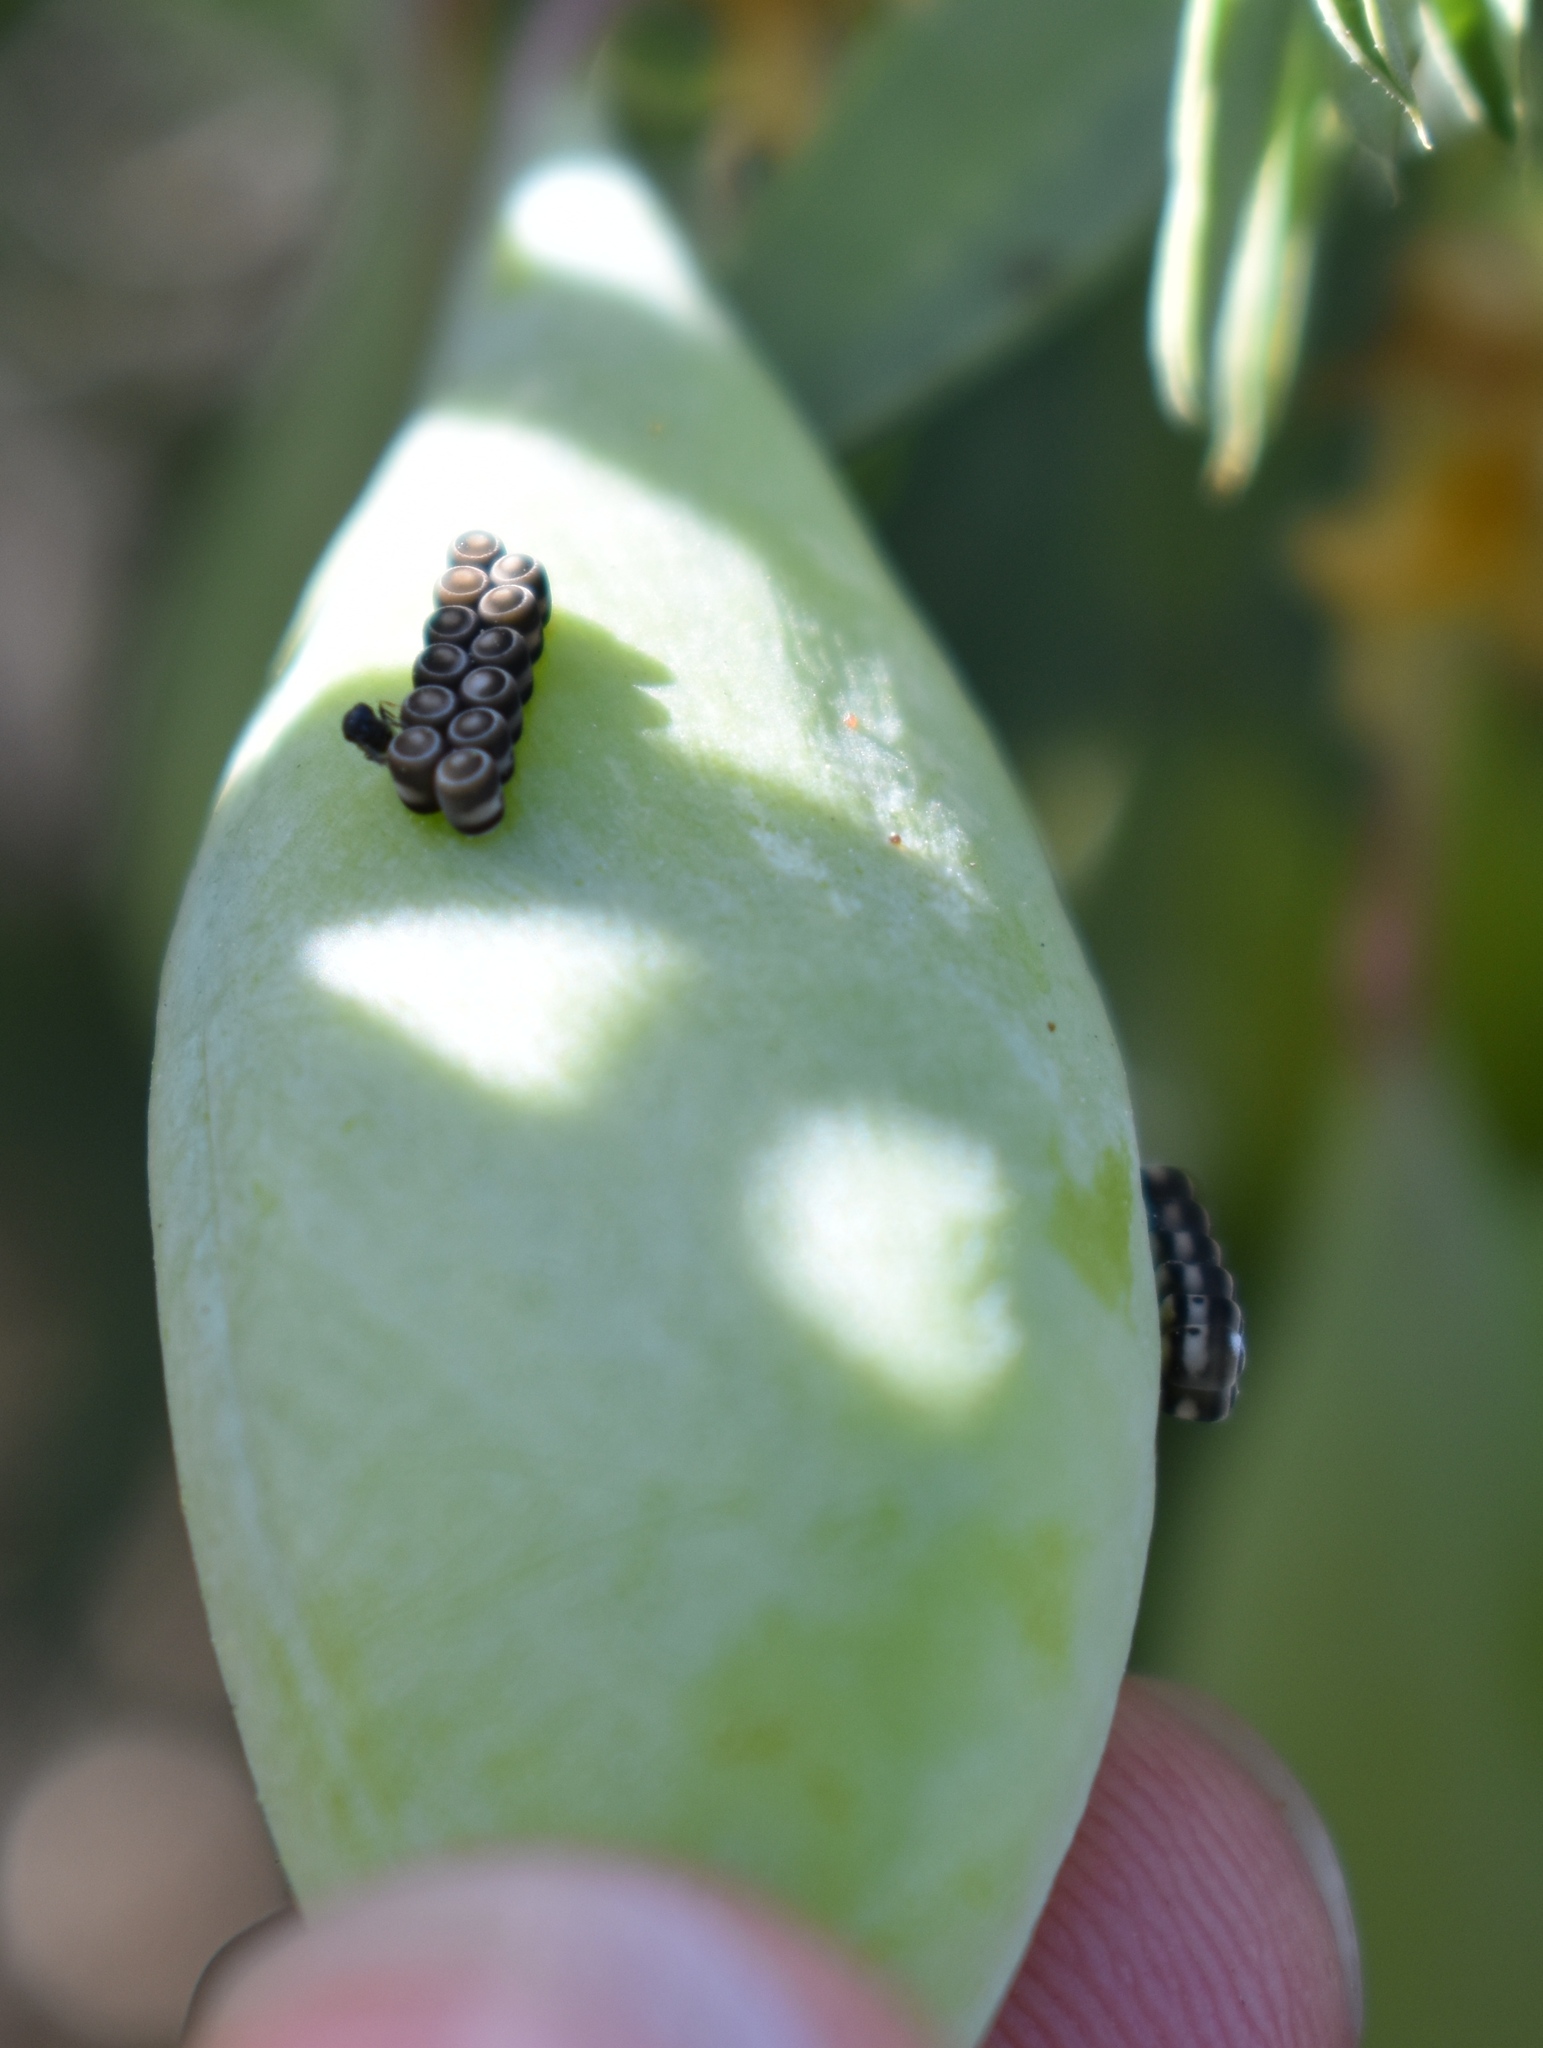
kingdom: Animalia
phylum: Arthropoda
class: Insecta
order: Hemiptera
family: Pentatomidae
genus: Murgantia
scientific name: Murgantia histrionica
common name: Harlequin bug
